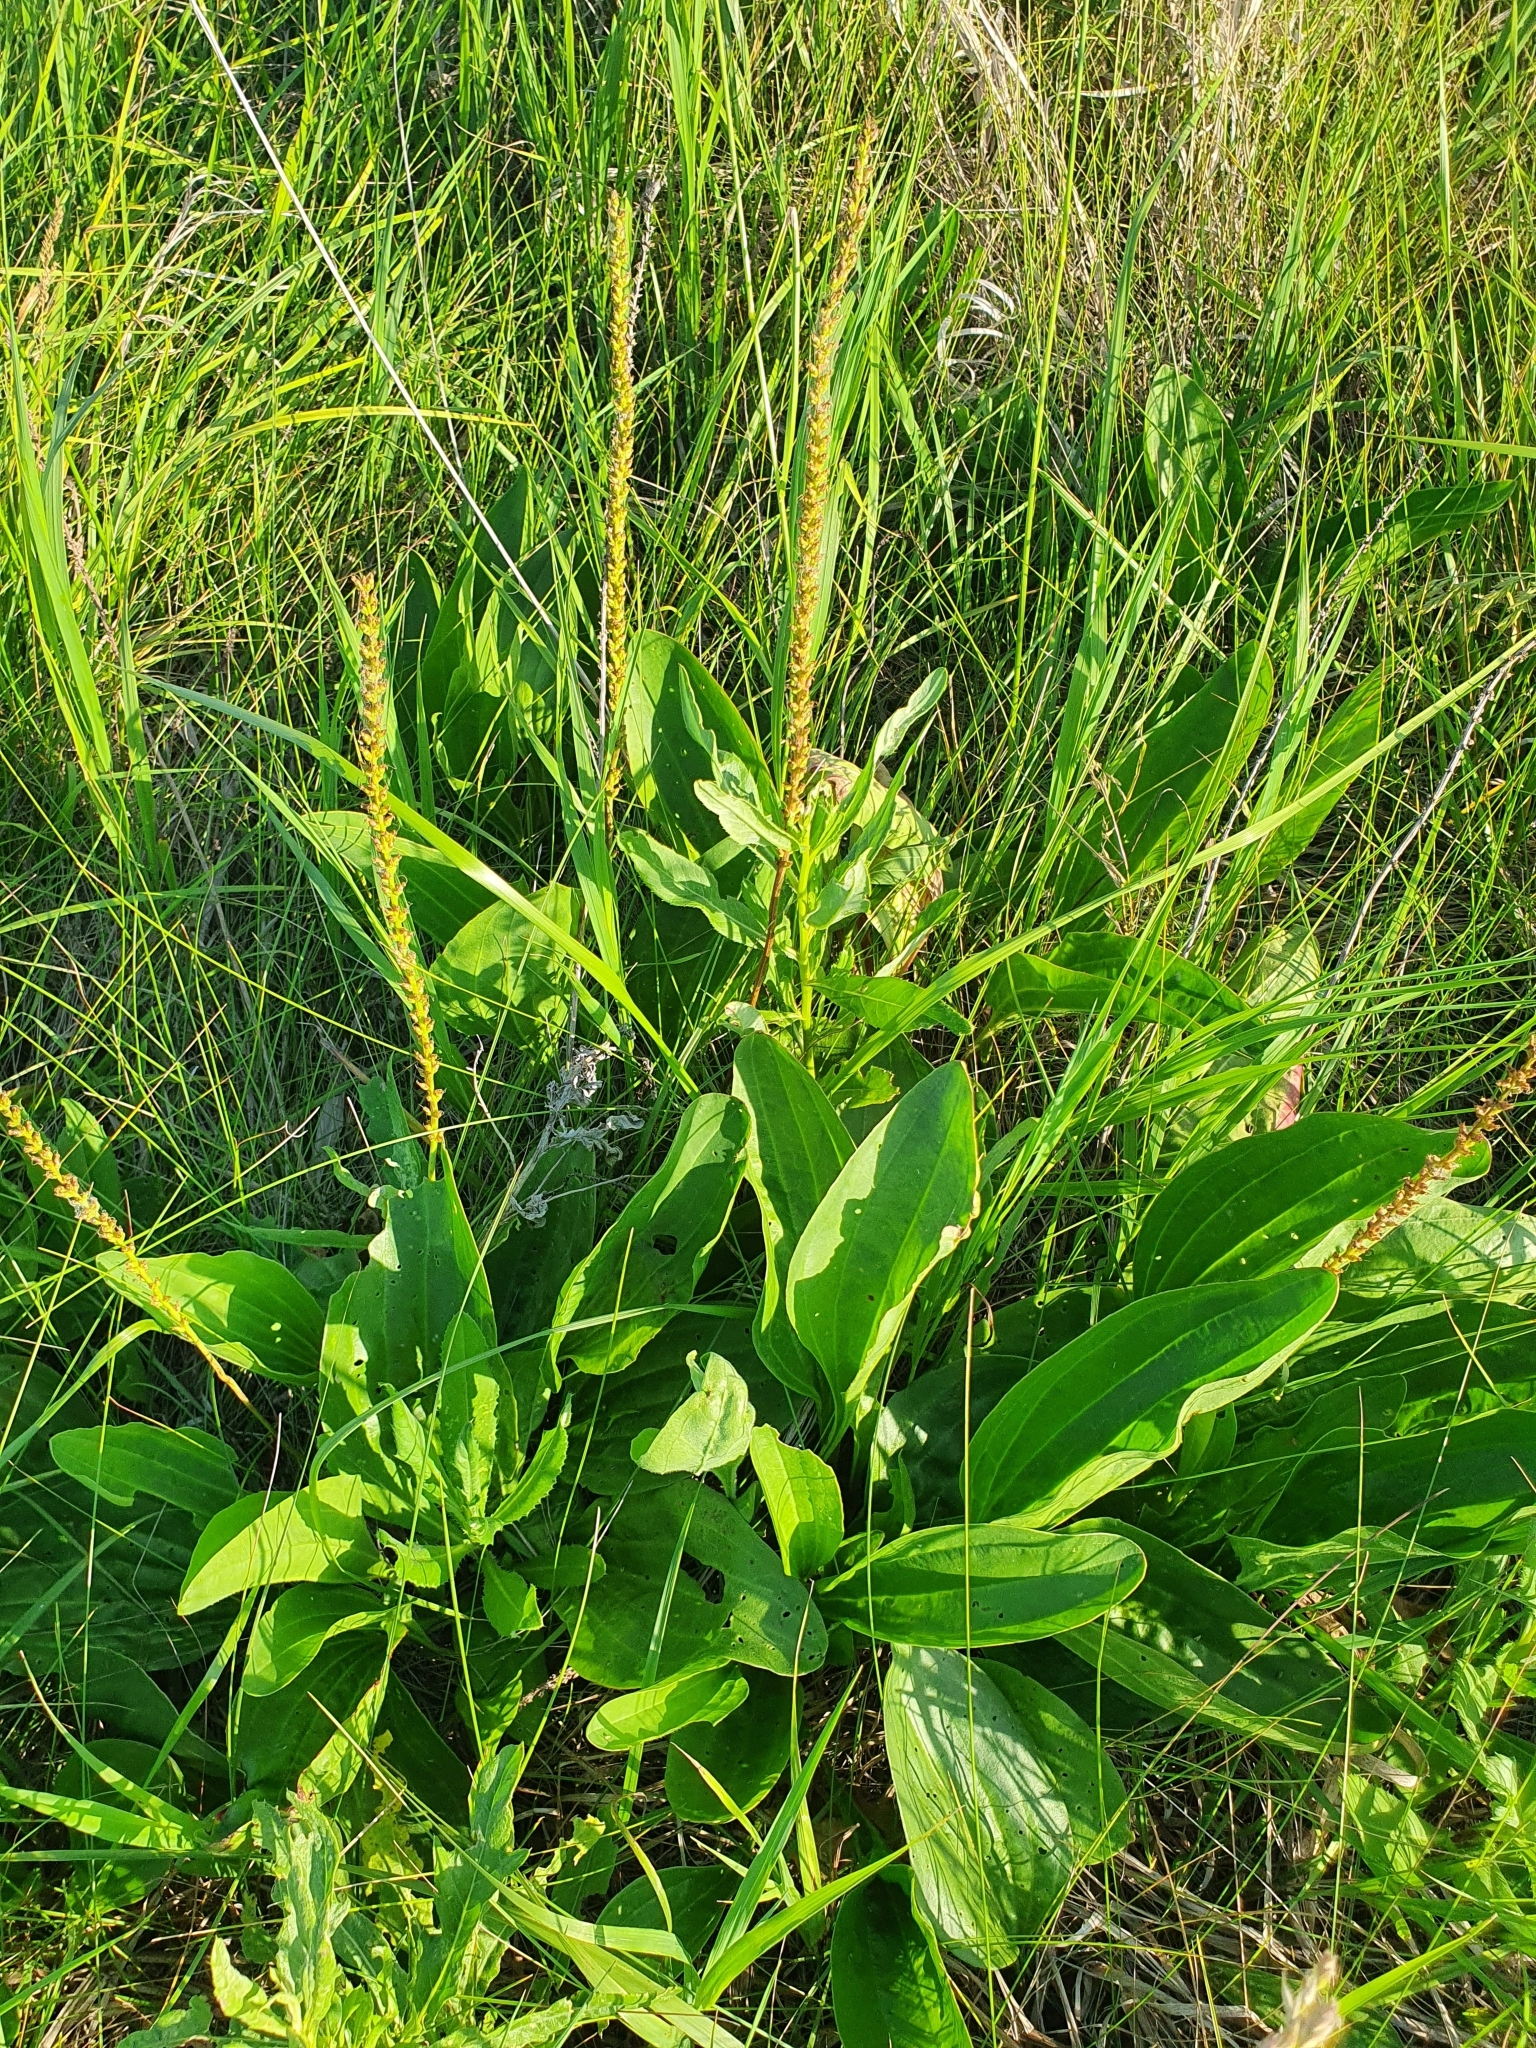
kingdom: Plantae
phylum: Tracheophyta
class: Magnoliopsida
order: Lamiales
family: Plantaginaceae
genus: Plantago
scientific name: Plantago cornuti
